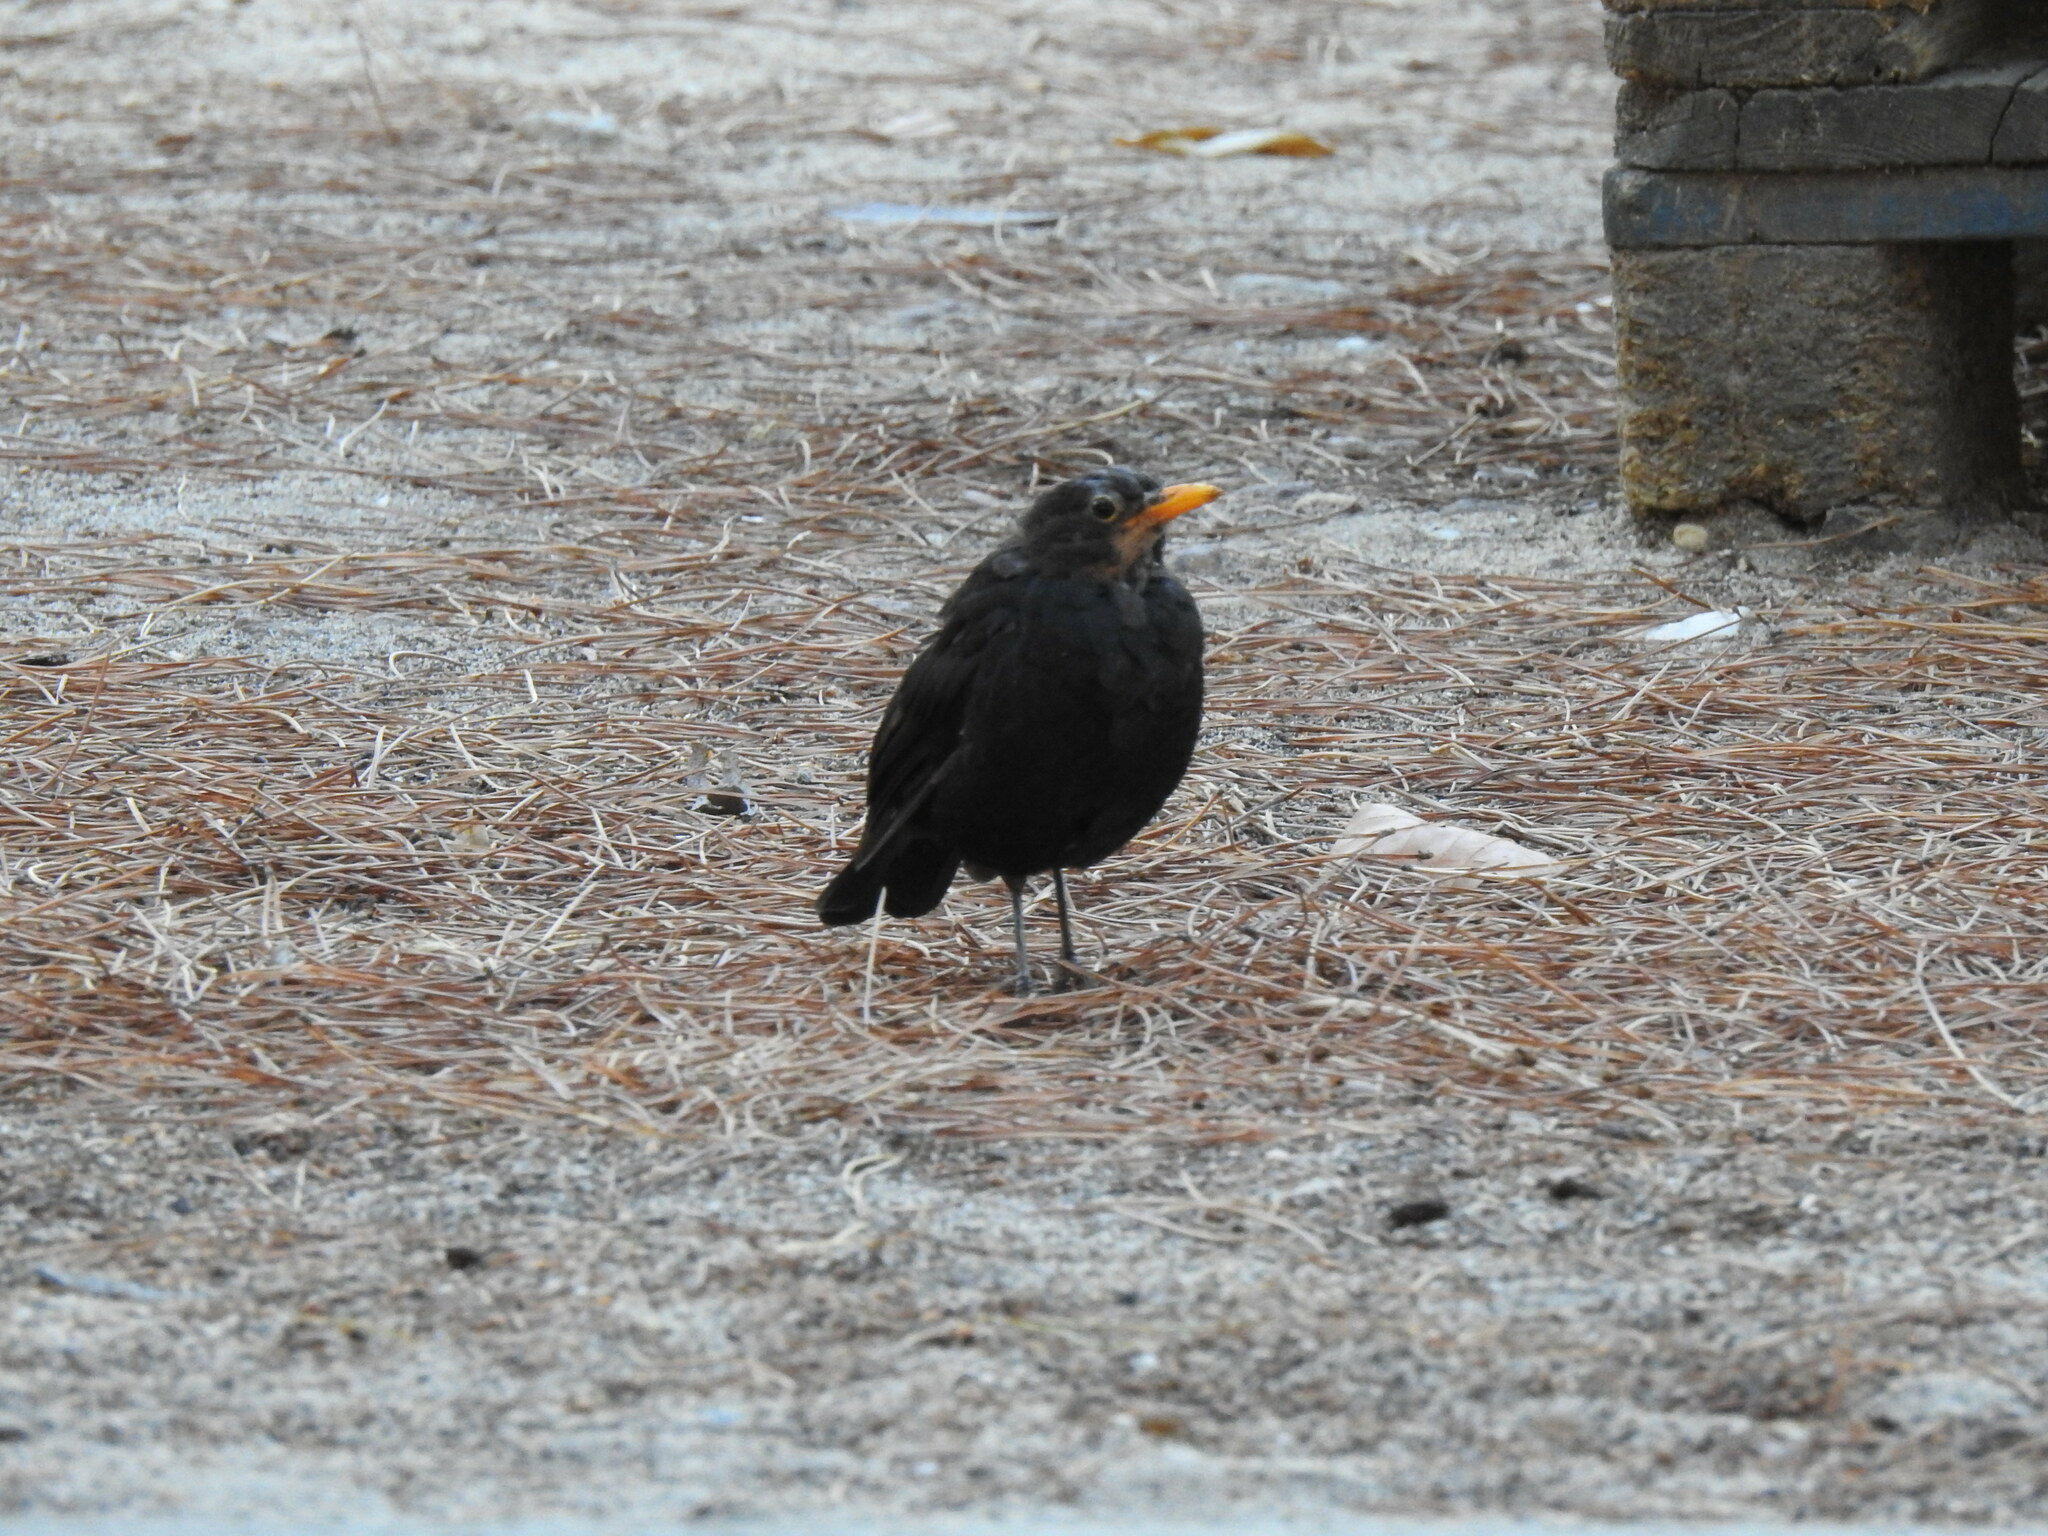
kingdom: Animalia
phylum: Chordata
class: Aves
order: Passeriformes
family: Turdidae
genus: Turdus
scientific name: Turdus merula
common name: Common blackbird
